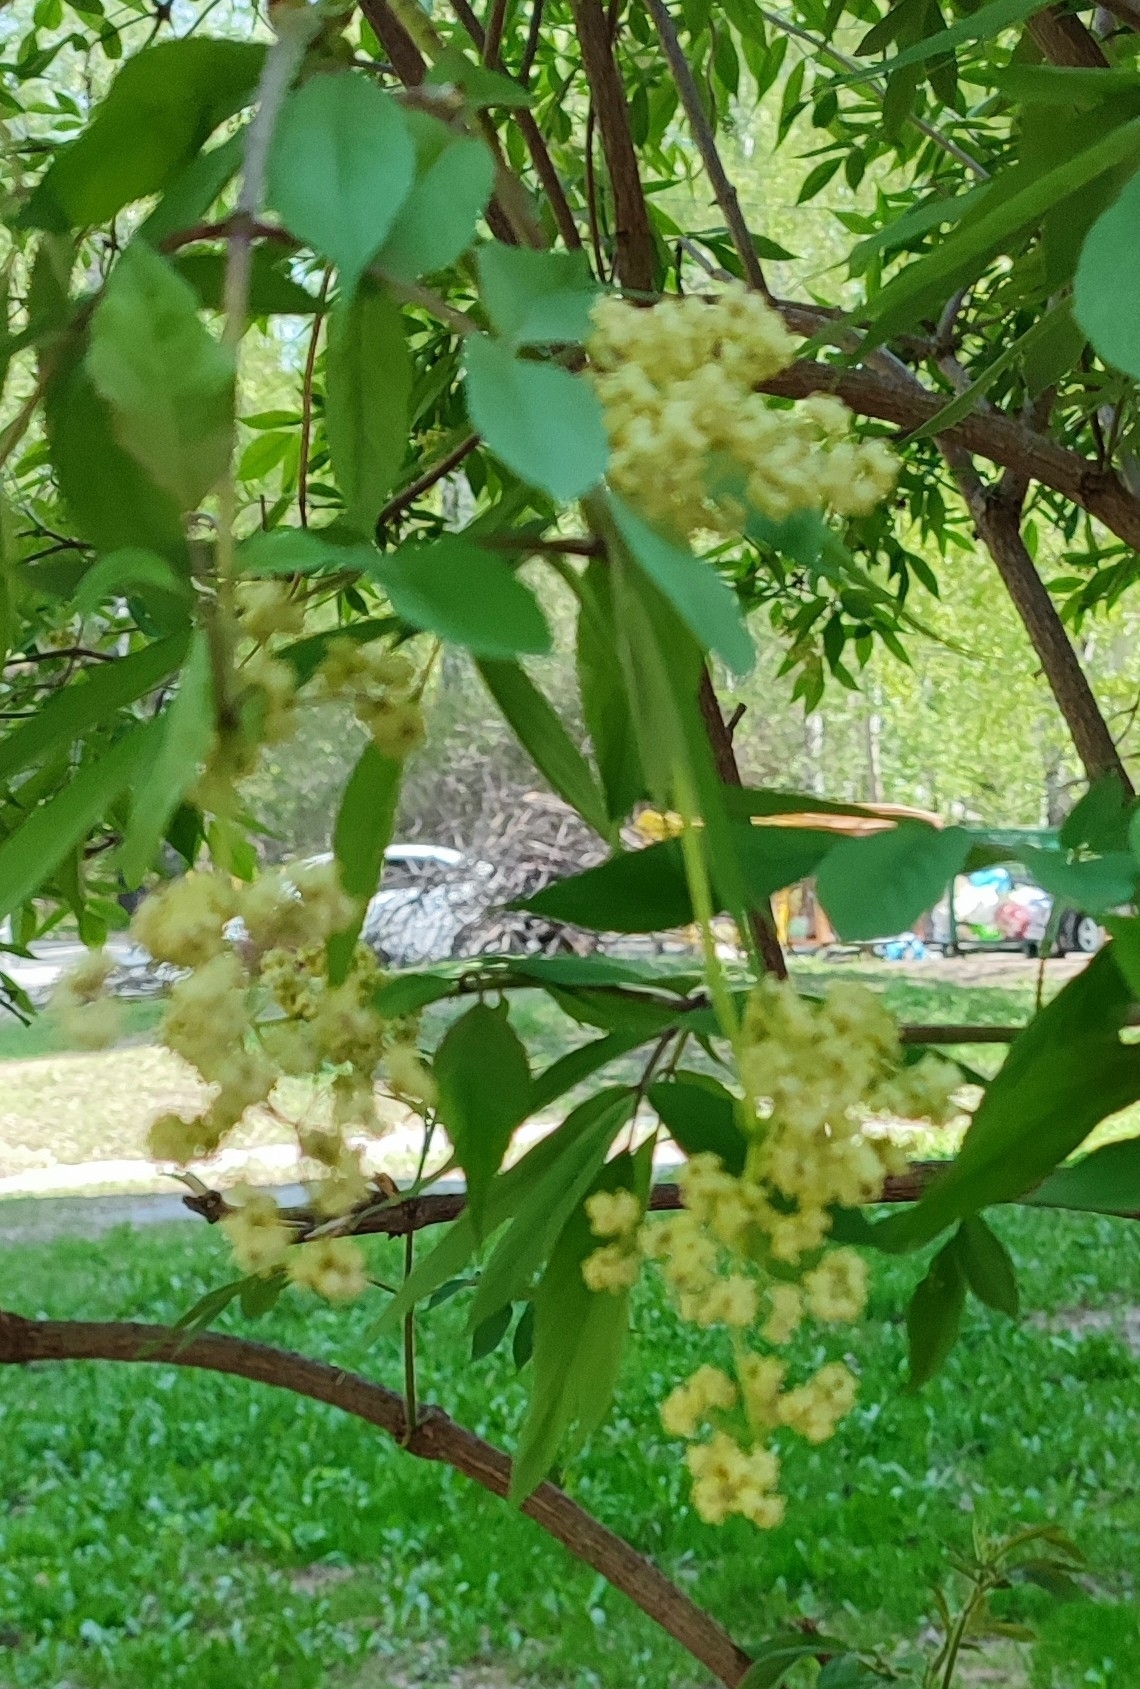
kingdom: Plantae
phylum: Tracheophyta
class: Magnoliopsida
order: Dipsacales
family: Viburnaceae
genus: Sambucus
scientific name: Sambucus racemosa
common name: Red-berried elder
